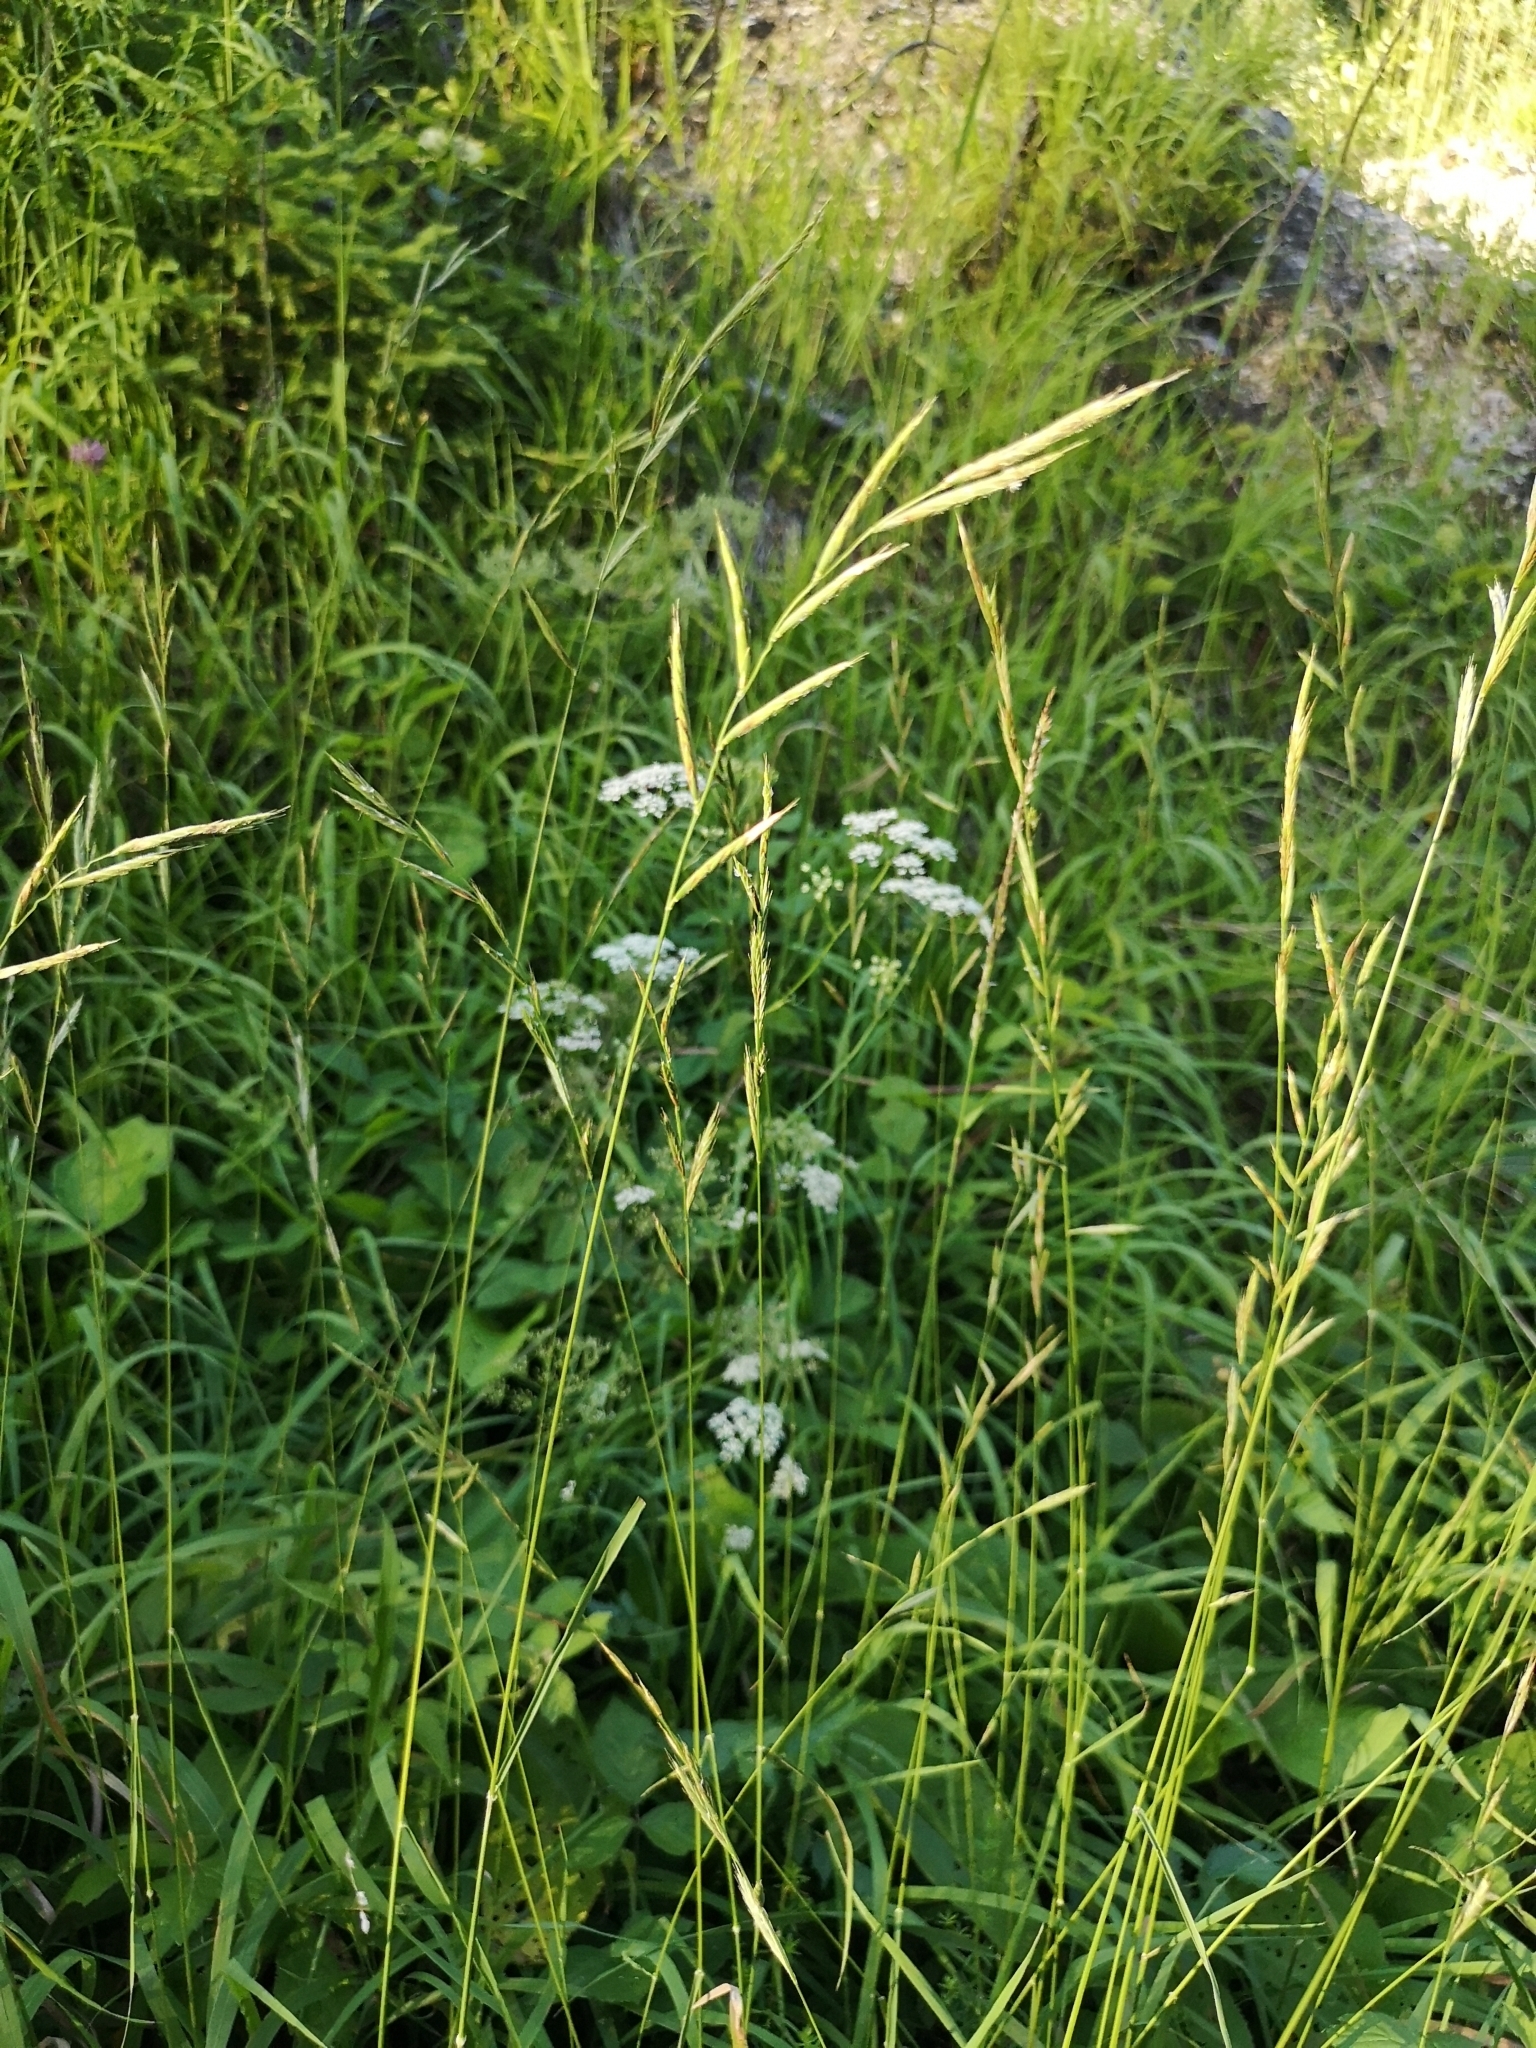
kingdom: Plantae
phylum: Tracheophyta
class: Liliopsida
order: Poales
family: Poaceae
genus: Brachypodium
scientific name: Brachypodium pinnatum
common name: Tor grass
